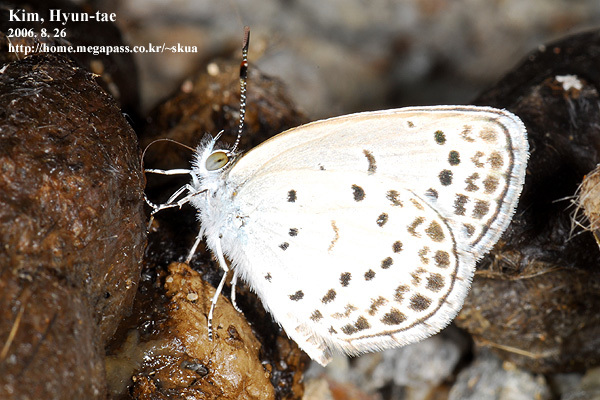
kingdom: Animalia
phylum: Arthropoda
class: Insecta
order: Lepidoptera
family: Lycaenidae
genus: Pseudozizeeria
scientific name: Pseudozizeeria maha
